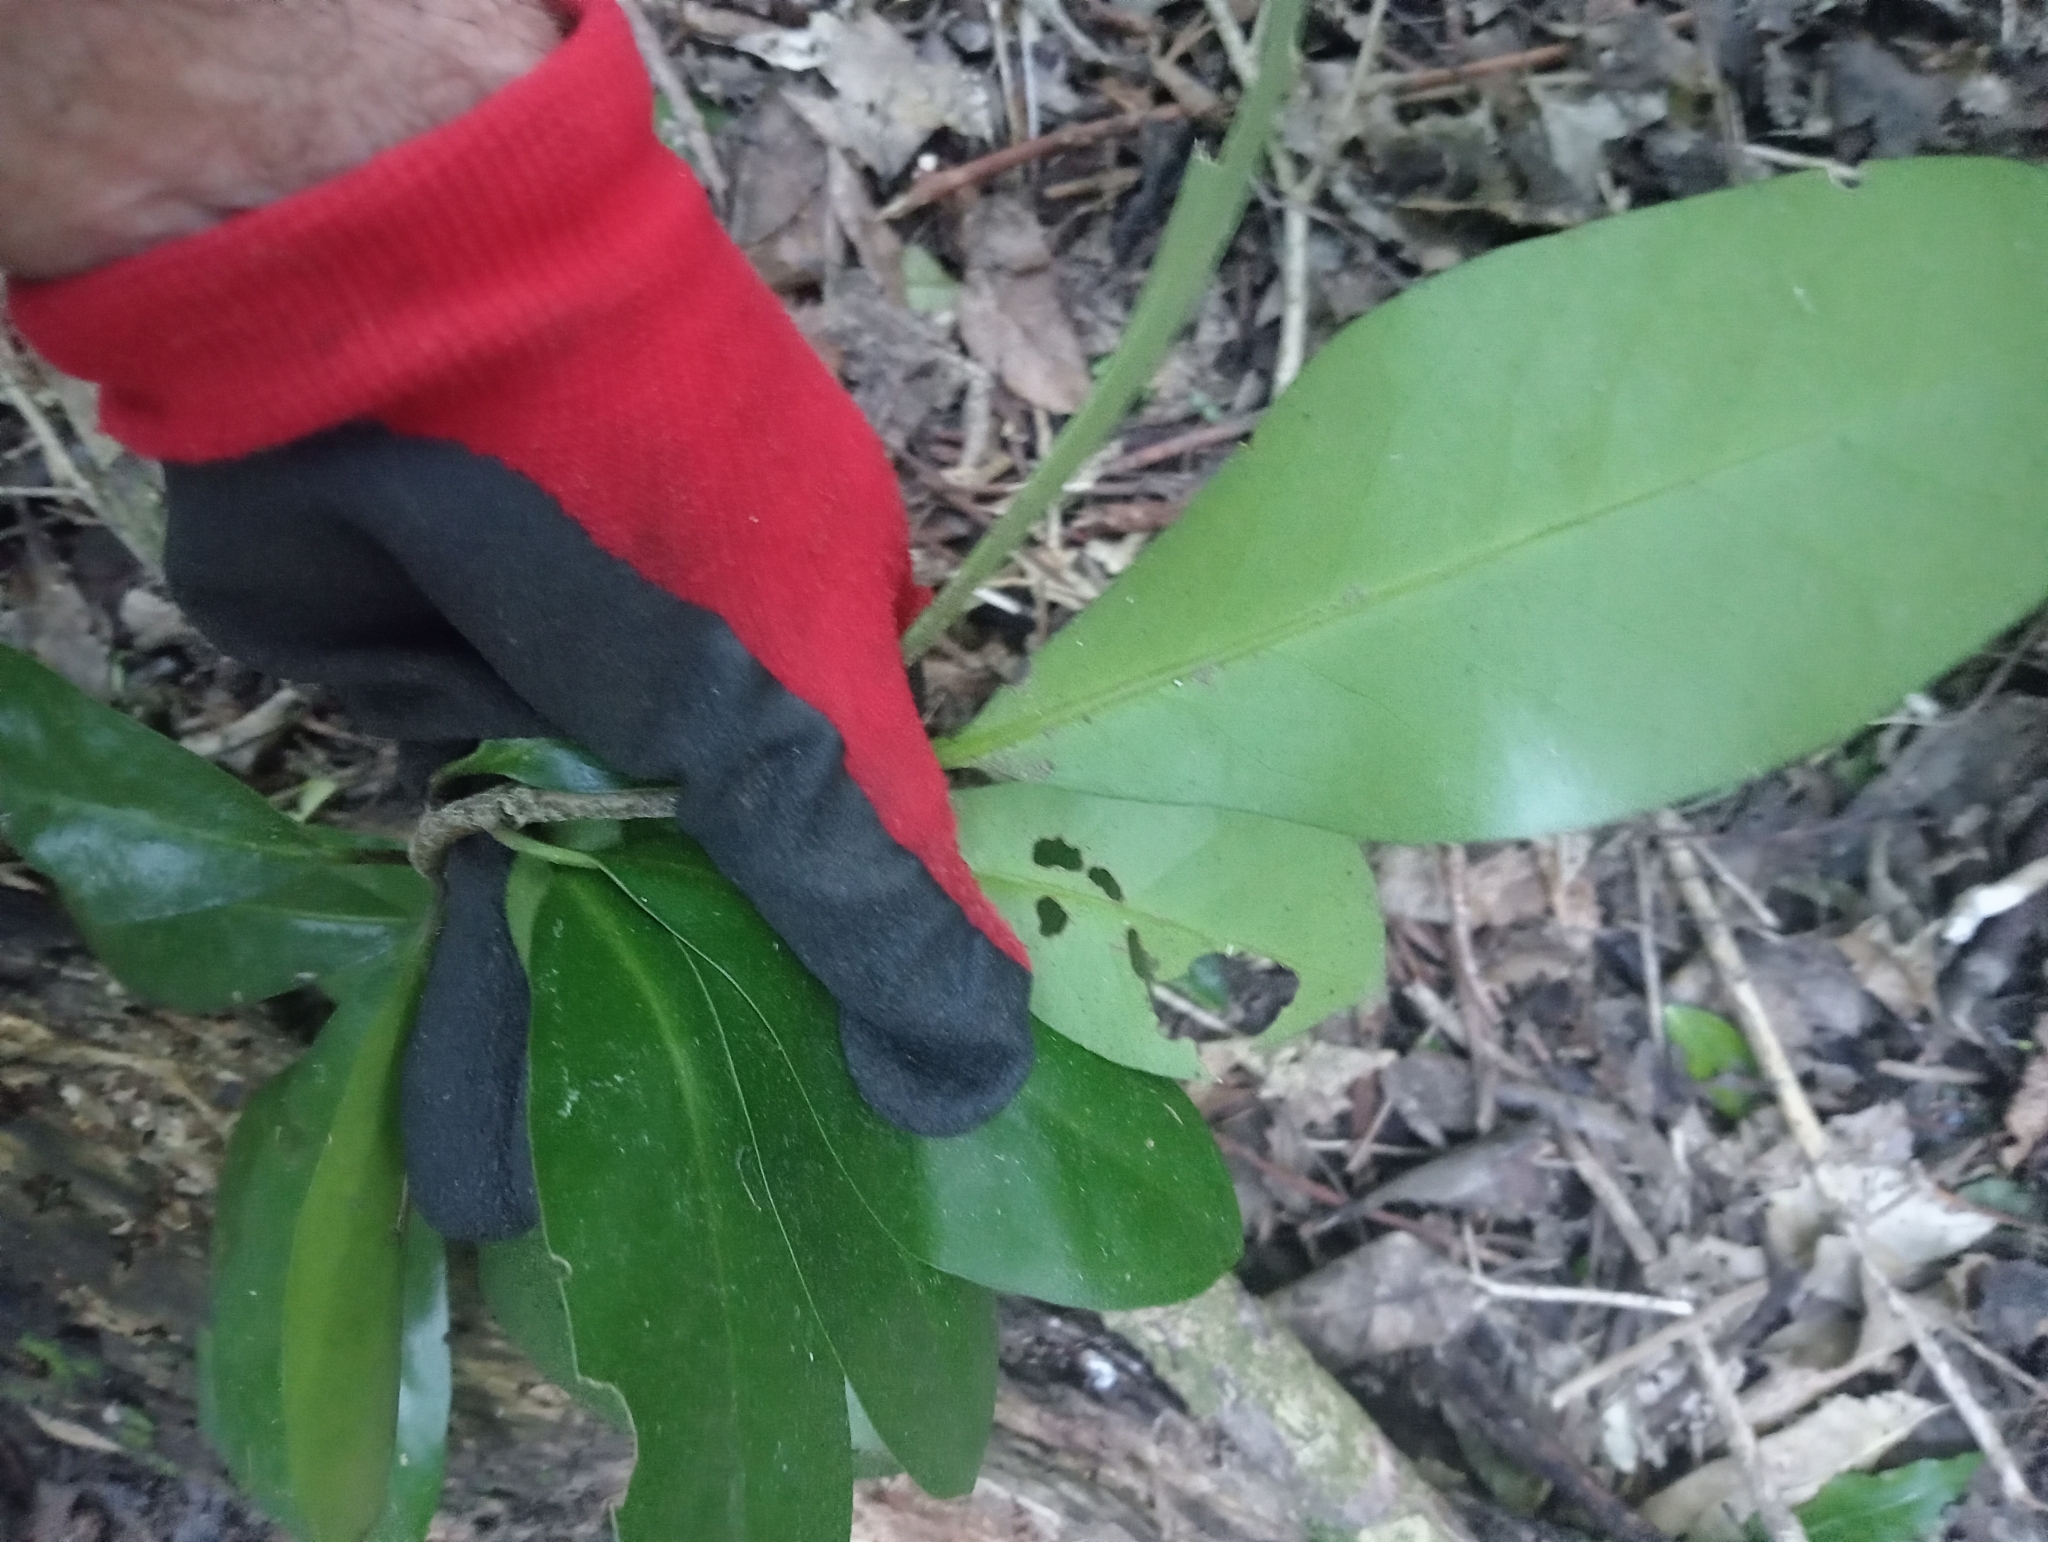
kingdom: Plantae
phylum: Tracheophyta
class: Magnoliopsida
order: Cucurbitales
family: Corynocarpaceae
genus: Corynocarpus
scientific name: Corynocarpus laevigatus
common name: New zealand laurel
